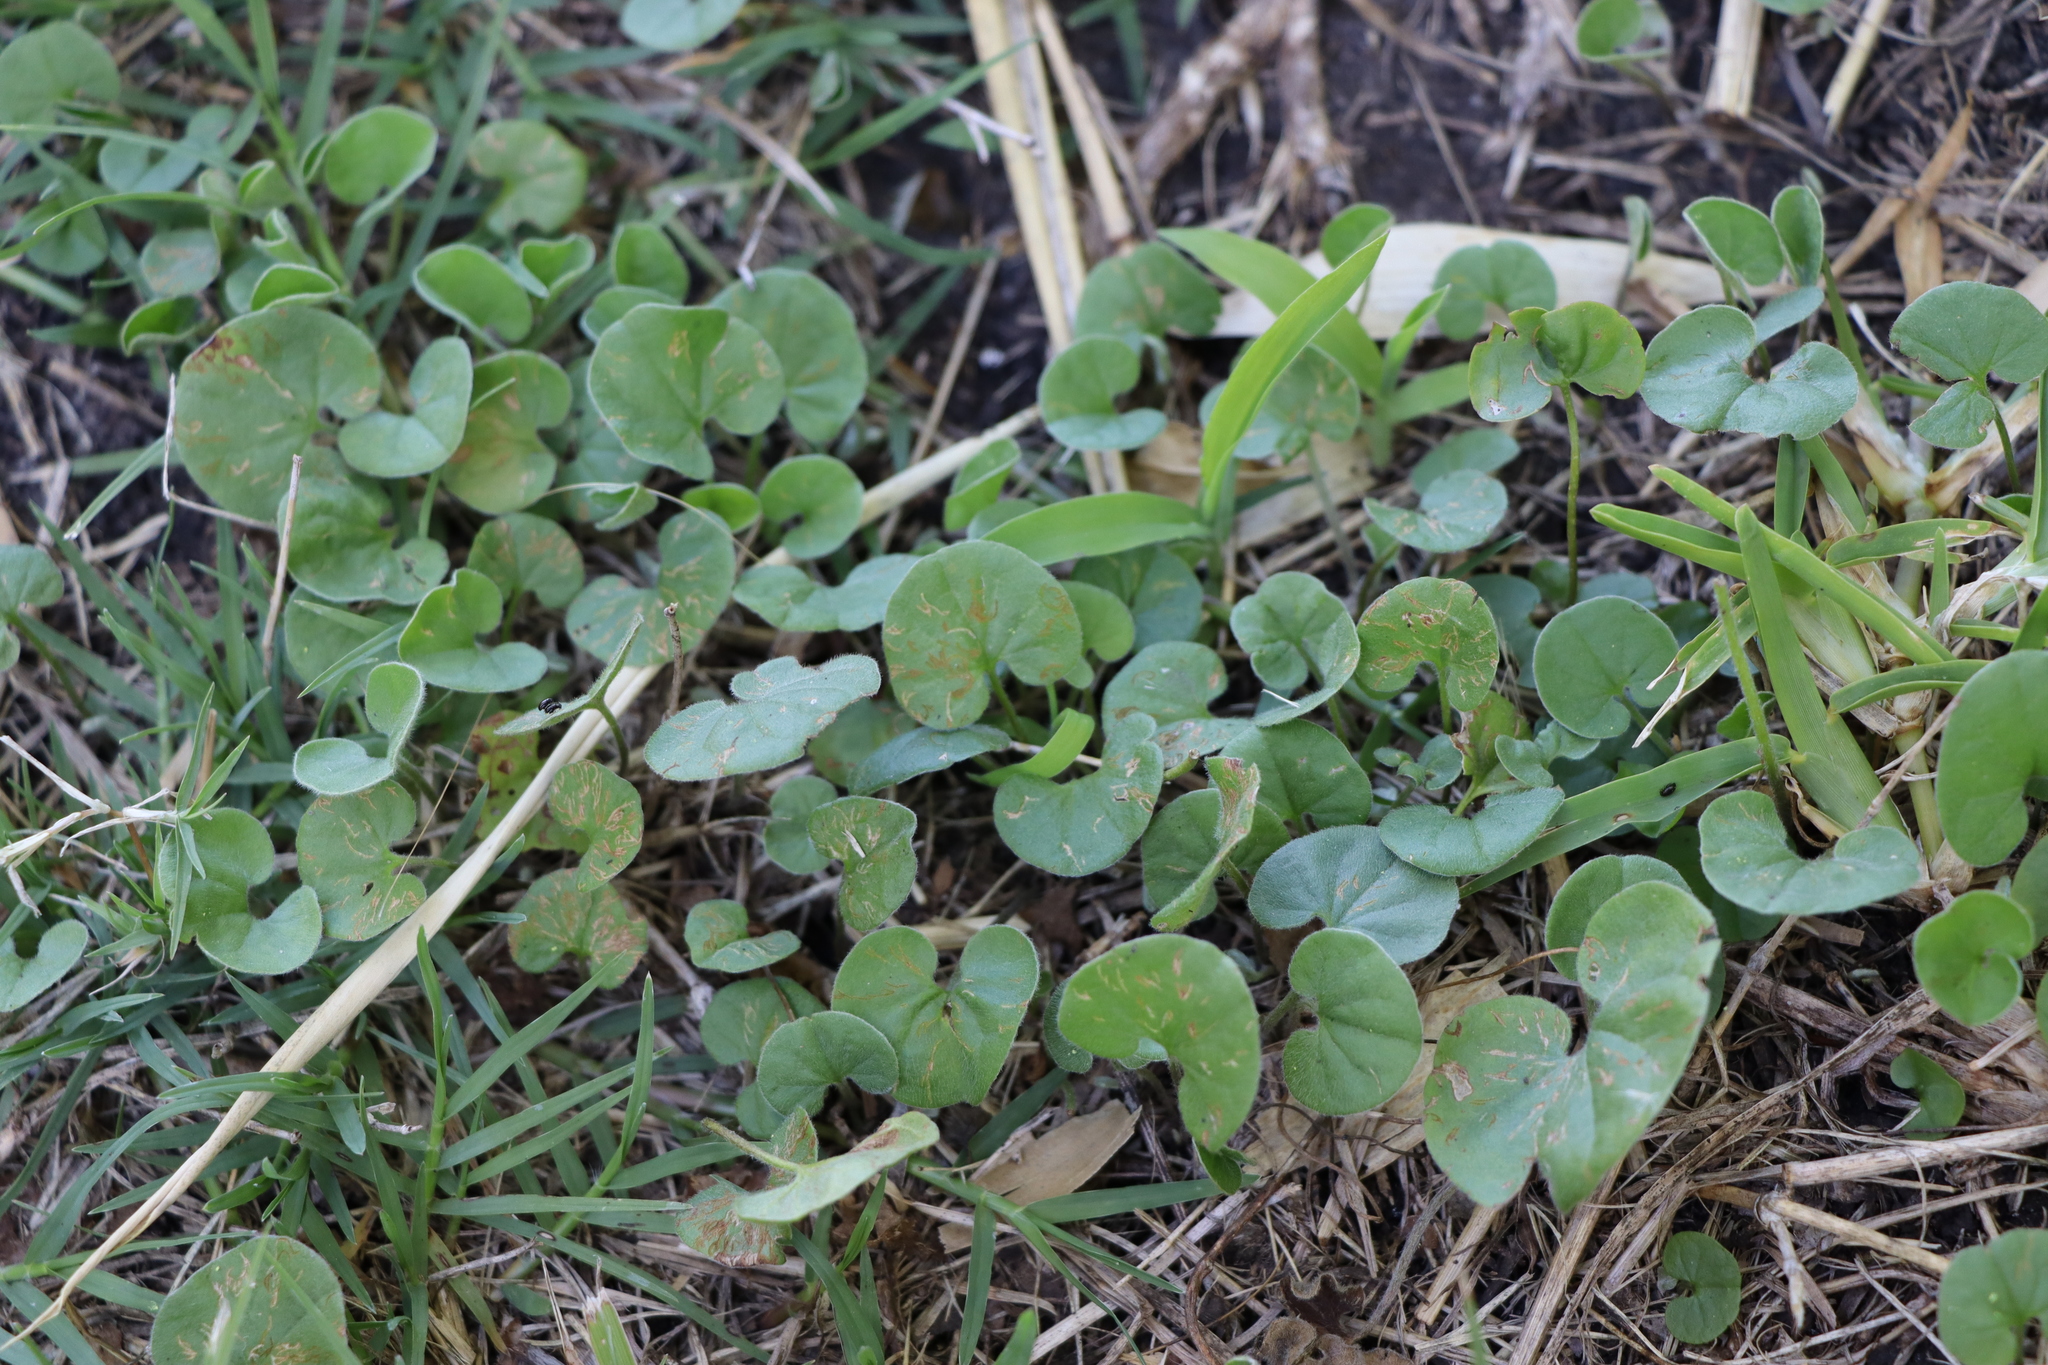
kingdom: Plantae
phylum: Tracheophyta
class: Magnoliopsida
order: Solanales
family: Convolvulaceae
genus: Dichondra
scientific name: Dichondra microcalyx
